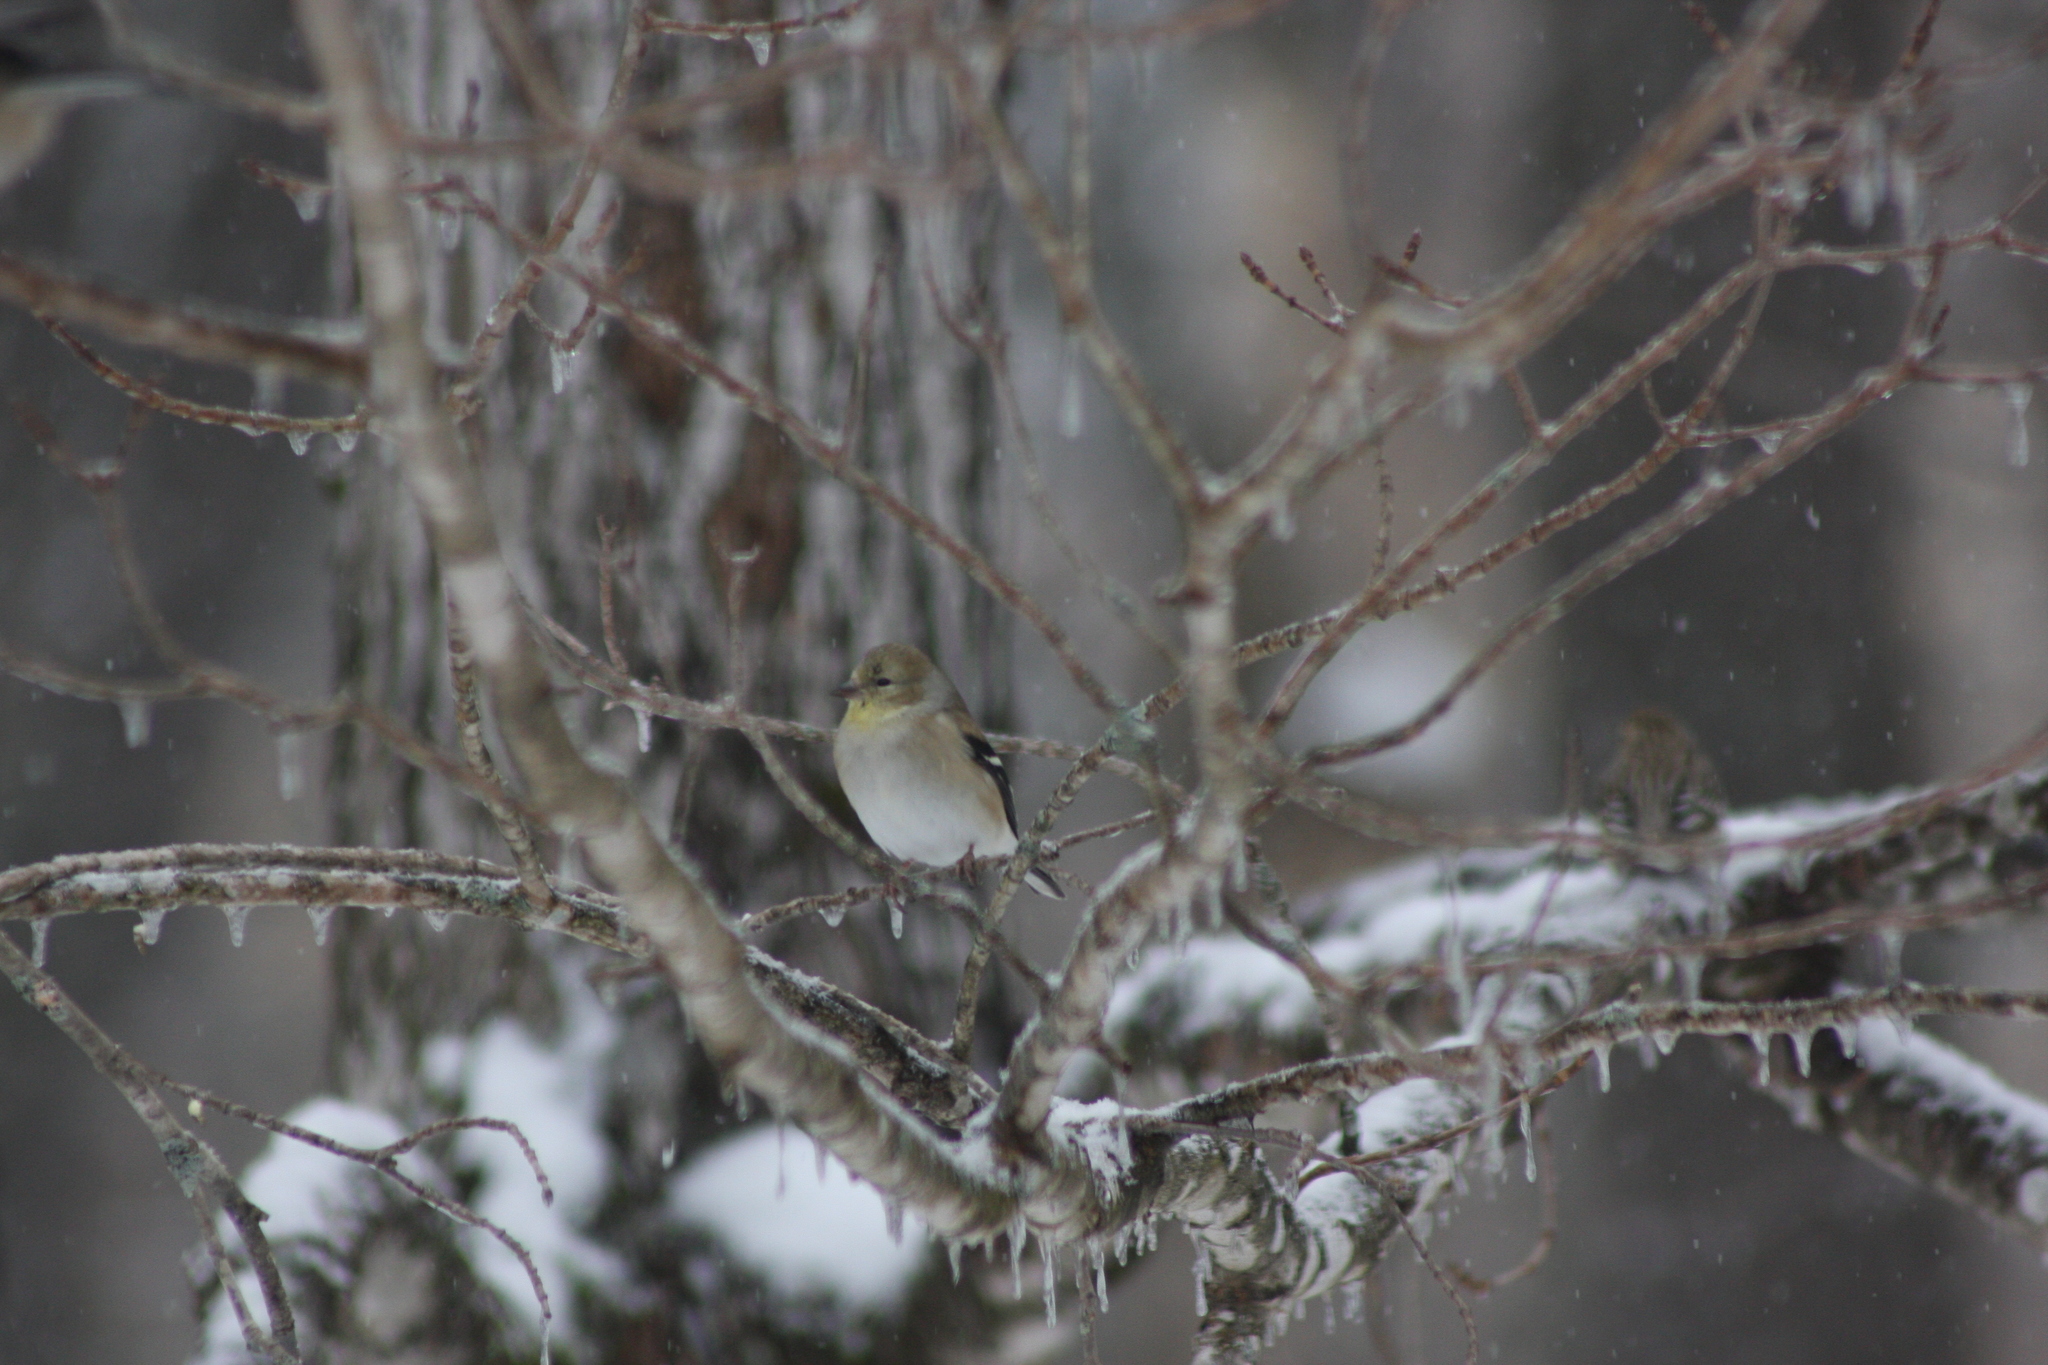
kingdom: Animalia
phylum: Chordata
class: Aves
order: Passeriformes
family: Fringillidae
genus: Spinus
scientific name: Spinus tristis
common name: American goldfinch
